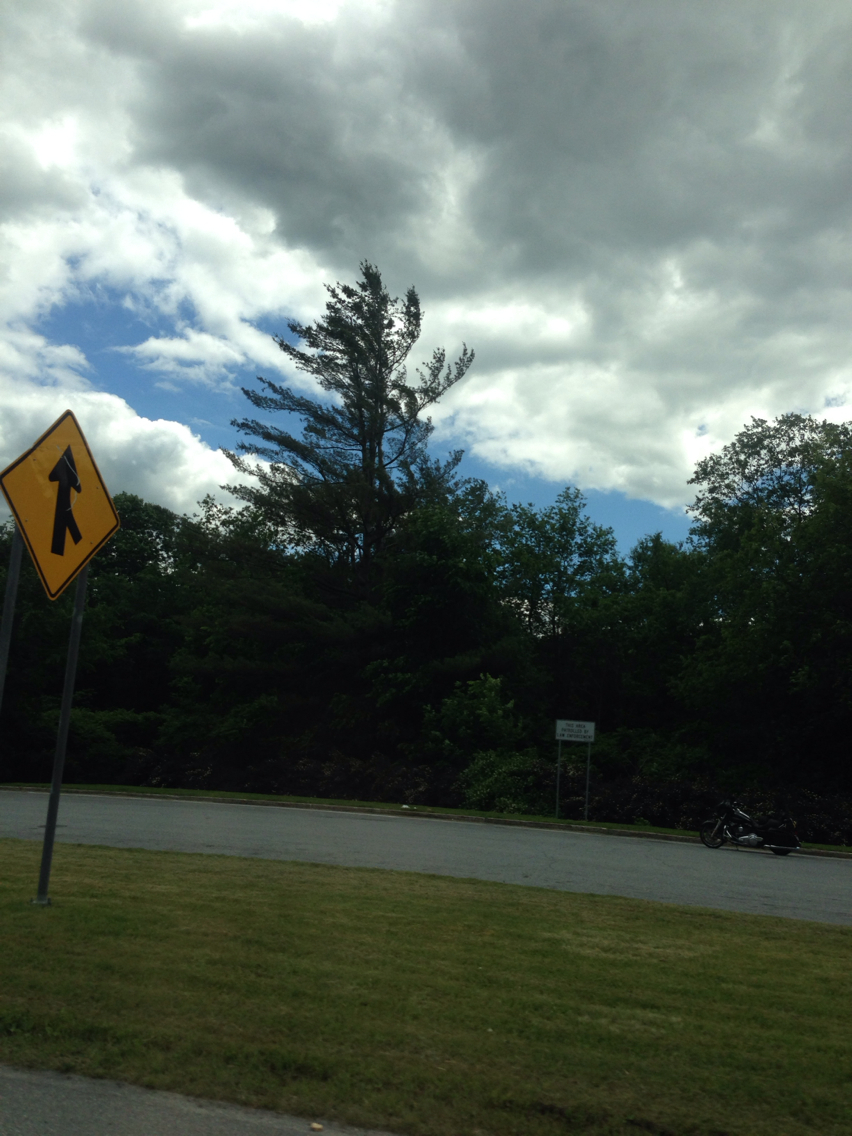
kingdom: Plantae
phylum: Tracheophyta
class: Pinopsida
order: Pinales
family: Pinaceae
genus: Pinus
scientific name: Pinus strobus
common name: Weymouth pine
